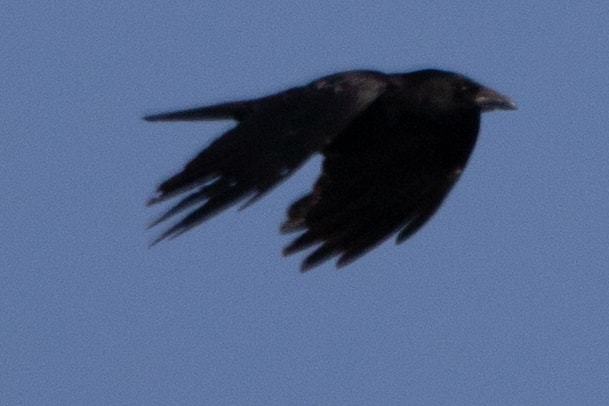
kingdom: Animalia
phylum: Chordata
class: Aves
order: Passeriformes
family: Corvidae
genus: Corvus
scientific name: Corvus corone
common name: Carrion crow
